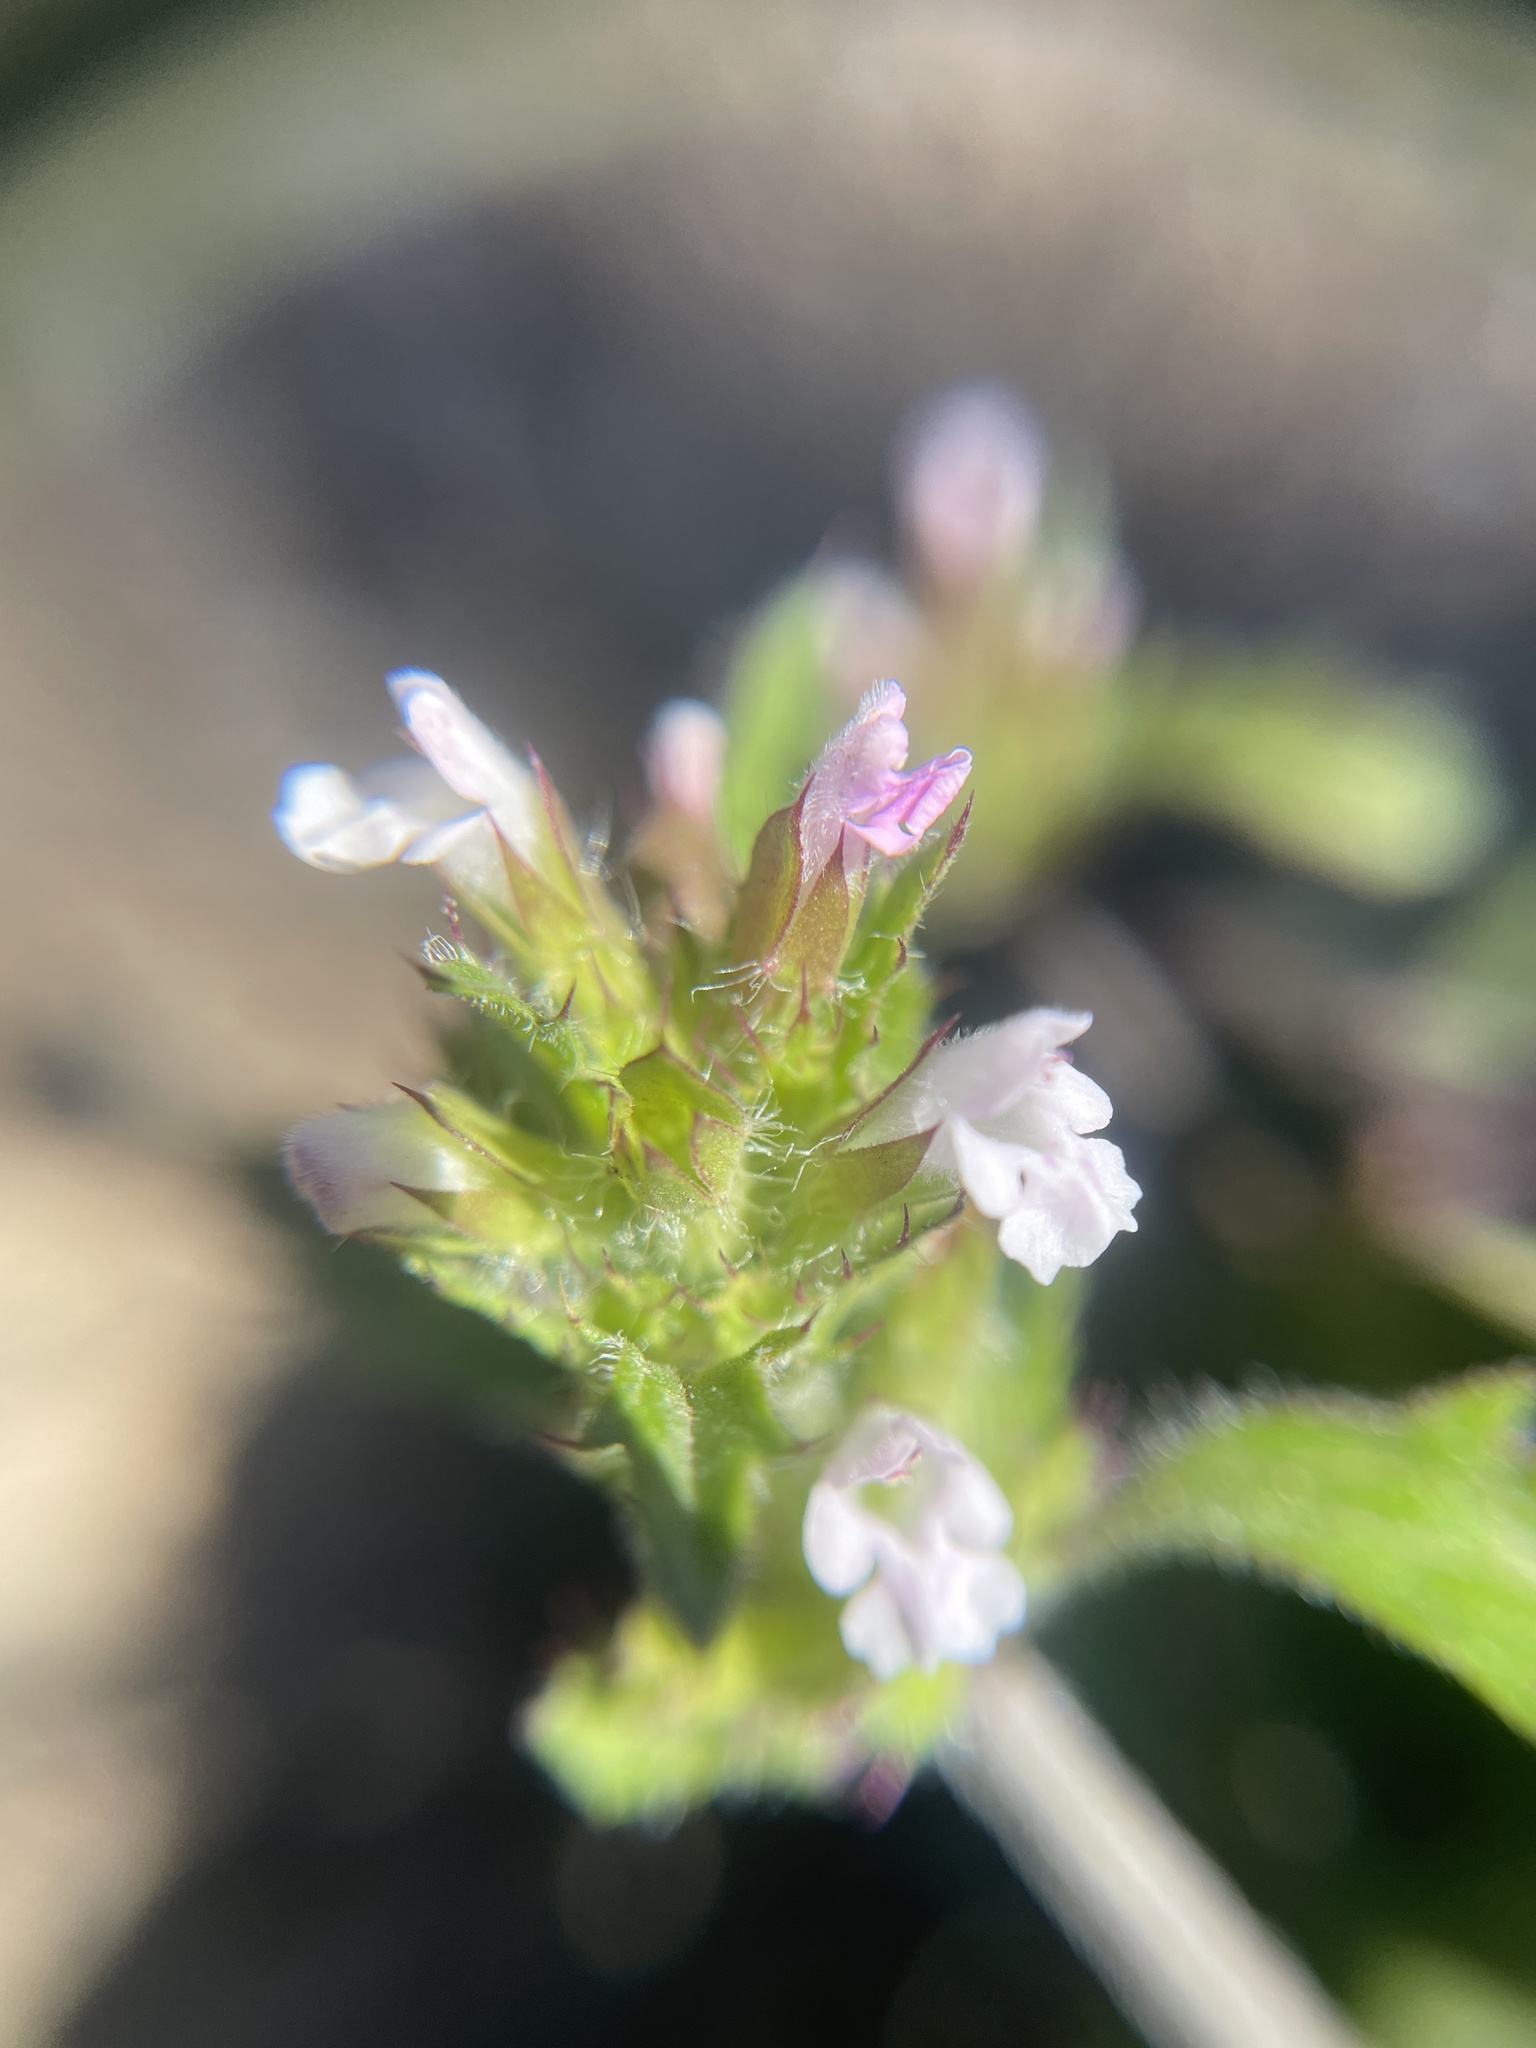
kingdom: Plantae
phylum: Tracheophyta
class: Magnoliopsida
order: Lamiales
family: Lamiaceae
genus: Dracocephalum
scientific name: Dracocephalum parviflorum
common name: American dragonhead
